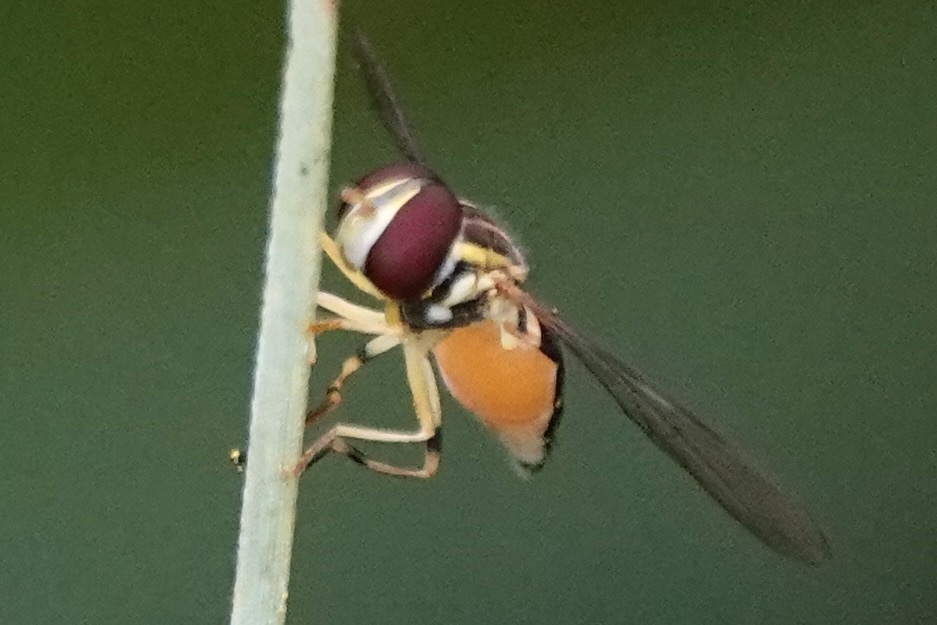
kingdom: Animalia
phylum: Arthropoda
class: Insecta
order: Diptera
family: Syrphidae
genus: Toxomerus
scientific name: Toxomerus geminatus
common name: Eastern calligrapher
